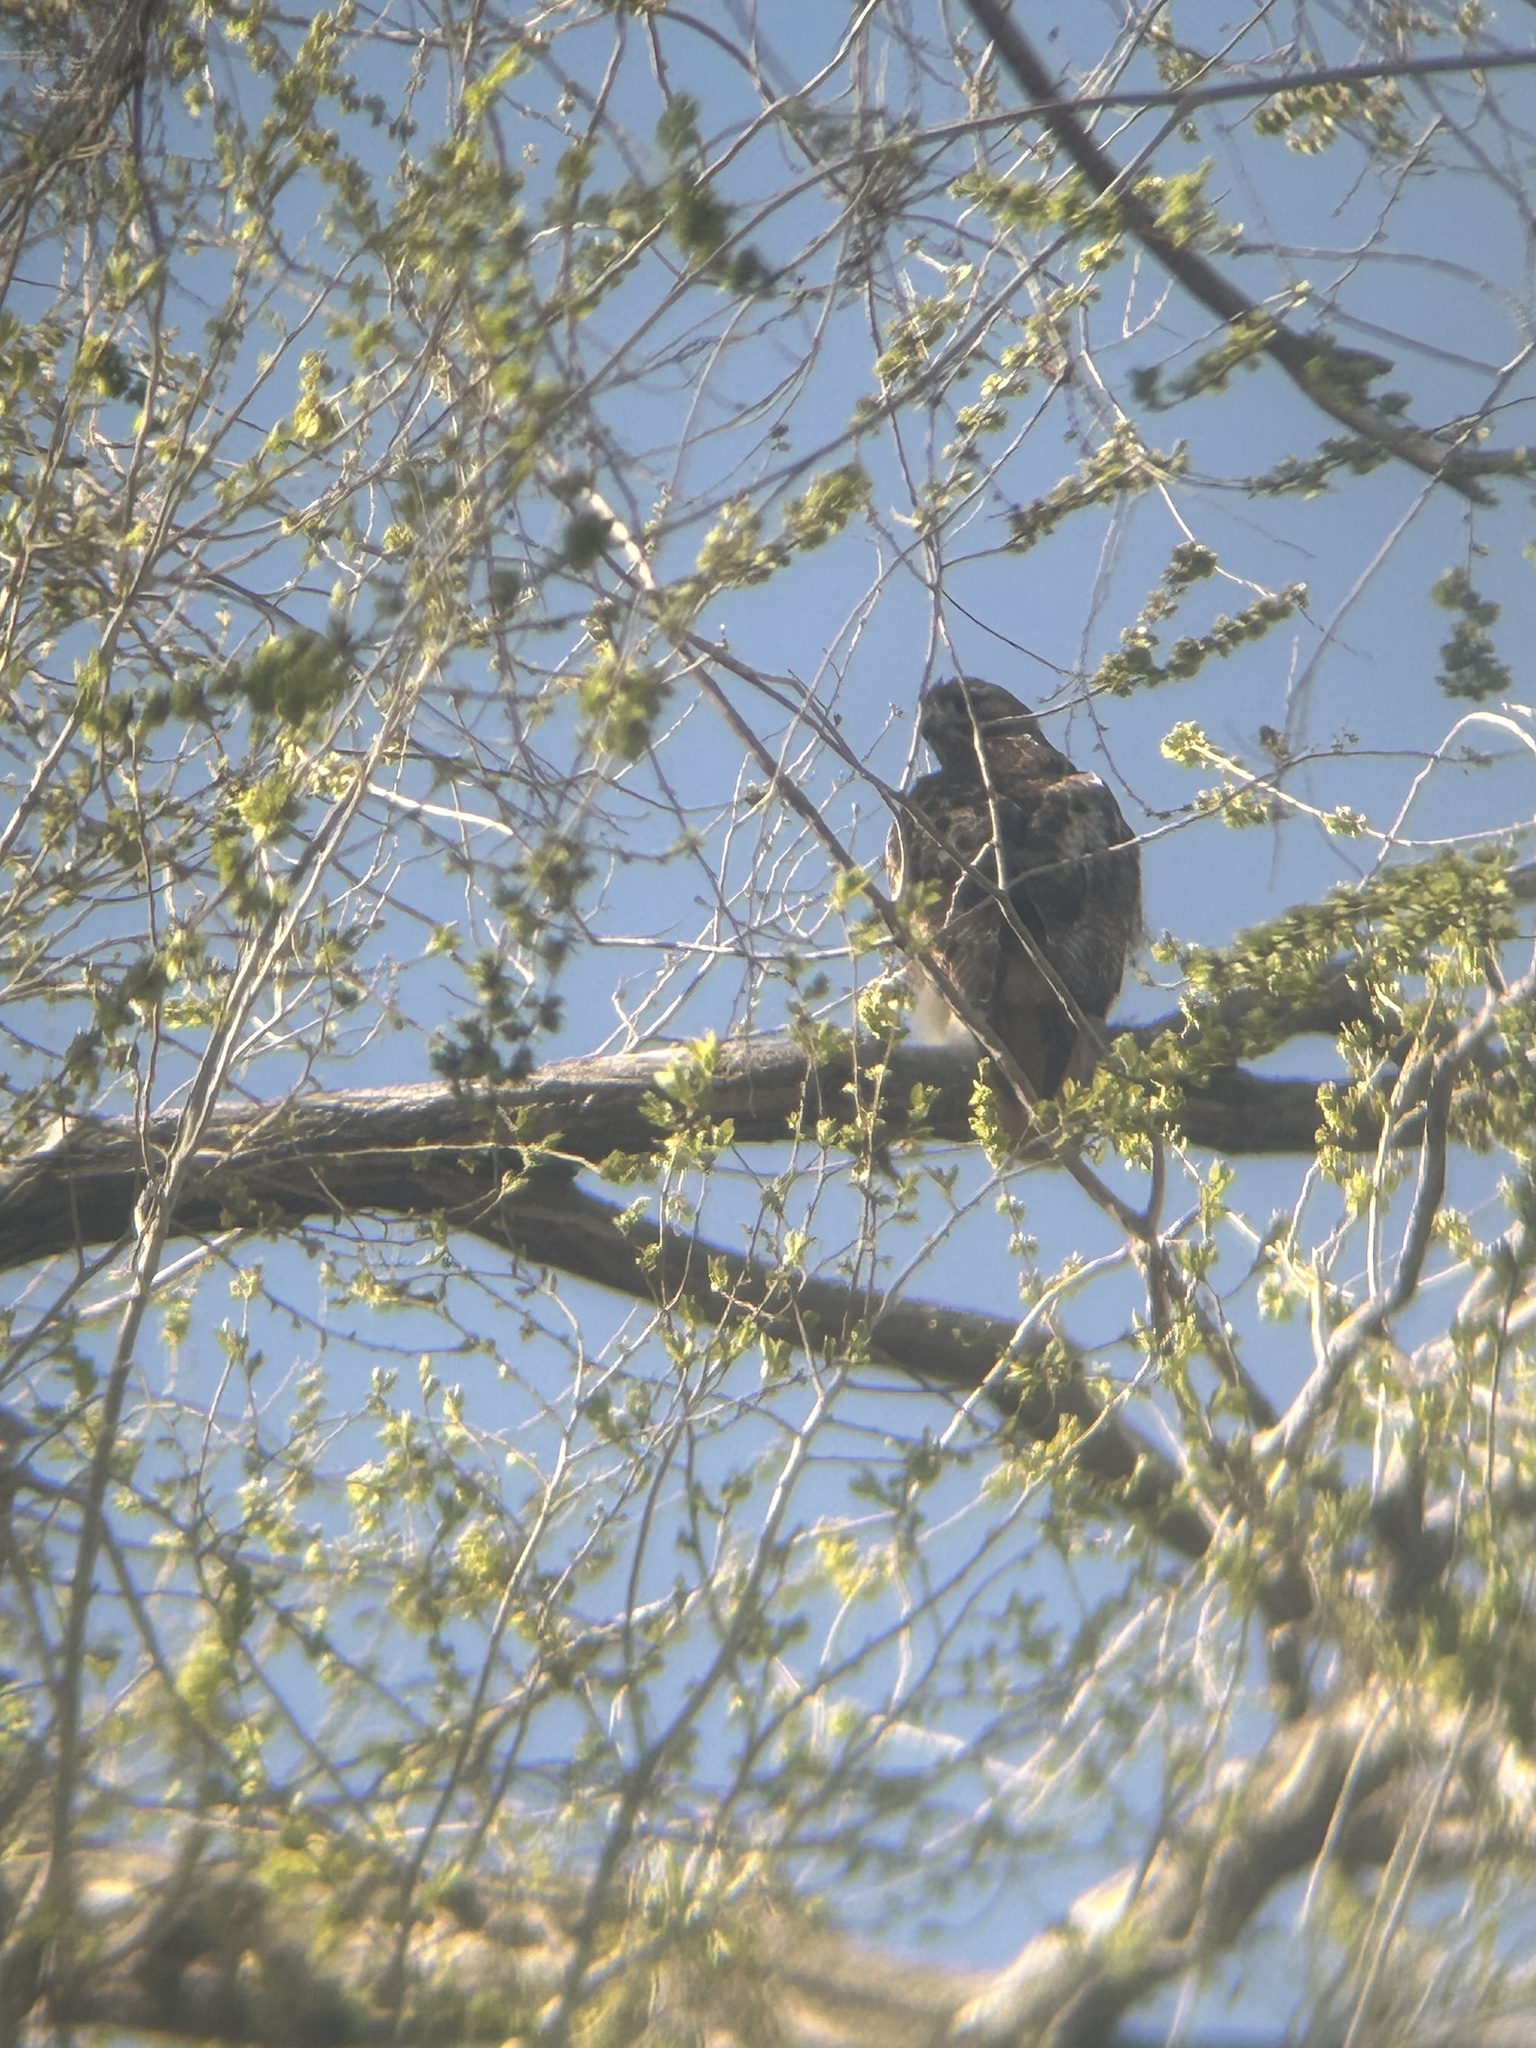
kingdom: Animalia
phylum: Chordata
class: Aves
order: Accipitriformes
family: Accipitridae
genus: Buteo
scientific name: Buteo jamaicensis
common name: Red-tailed hawk
